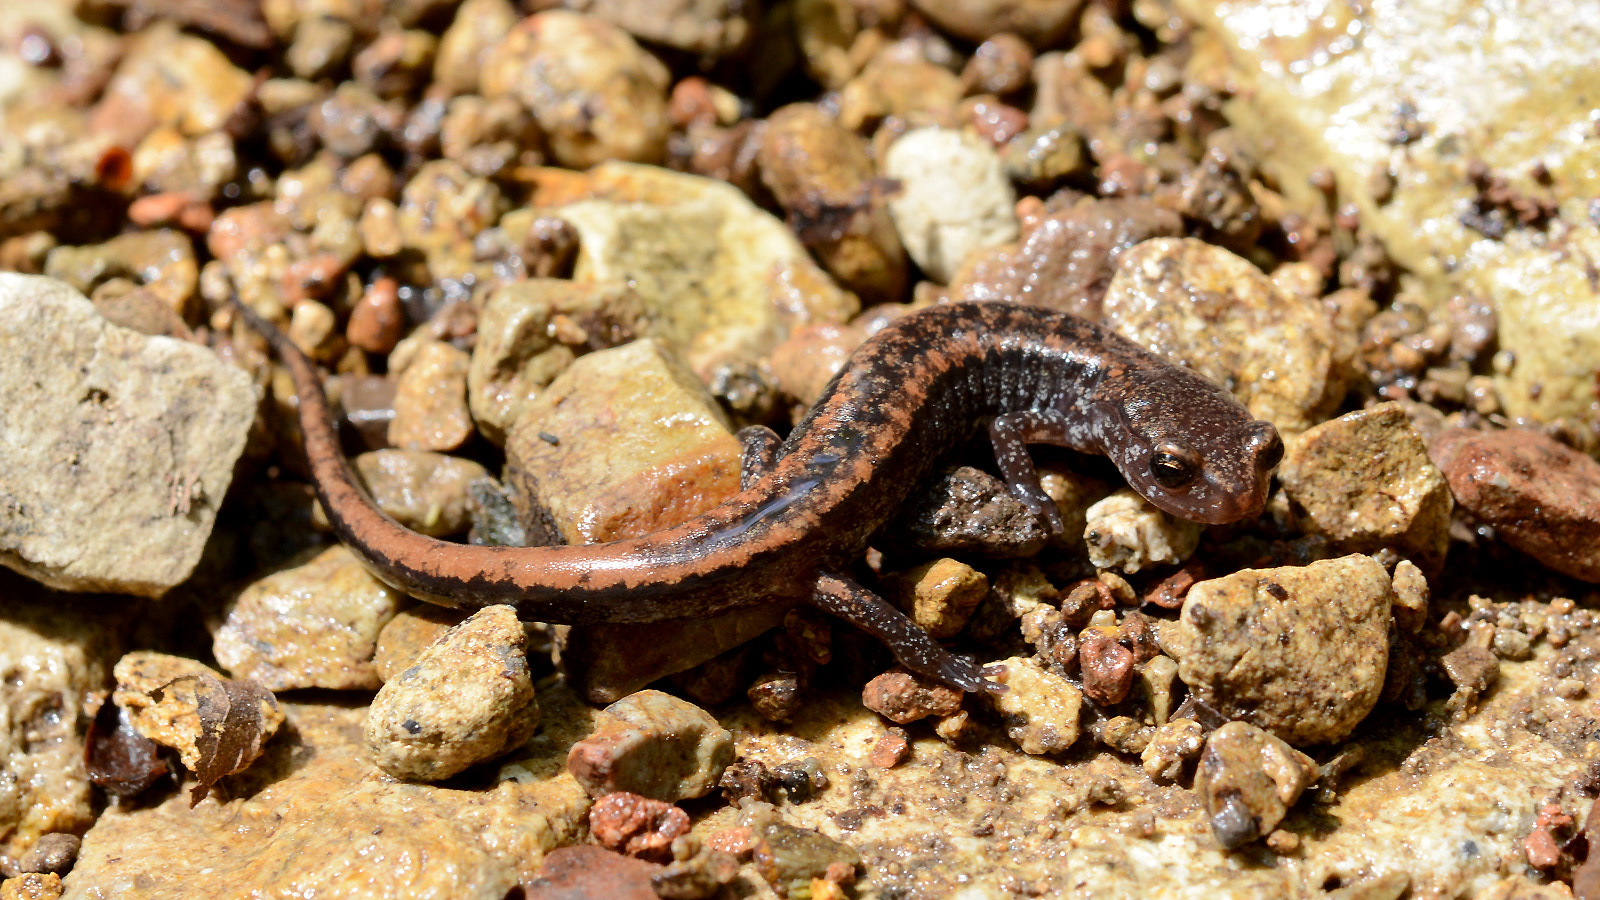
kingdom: Animalia
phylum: Chordata
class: Amphibia
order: Caudata
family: Plethodontidae
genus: Karsenia
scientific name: Karsenia koreana
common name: Korean crevice salamander
